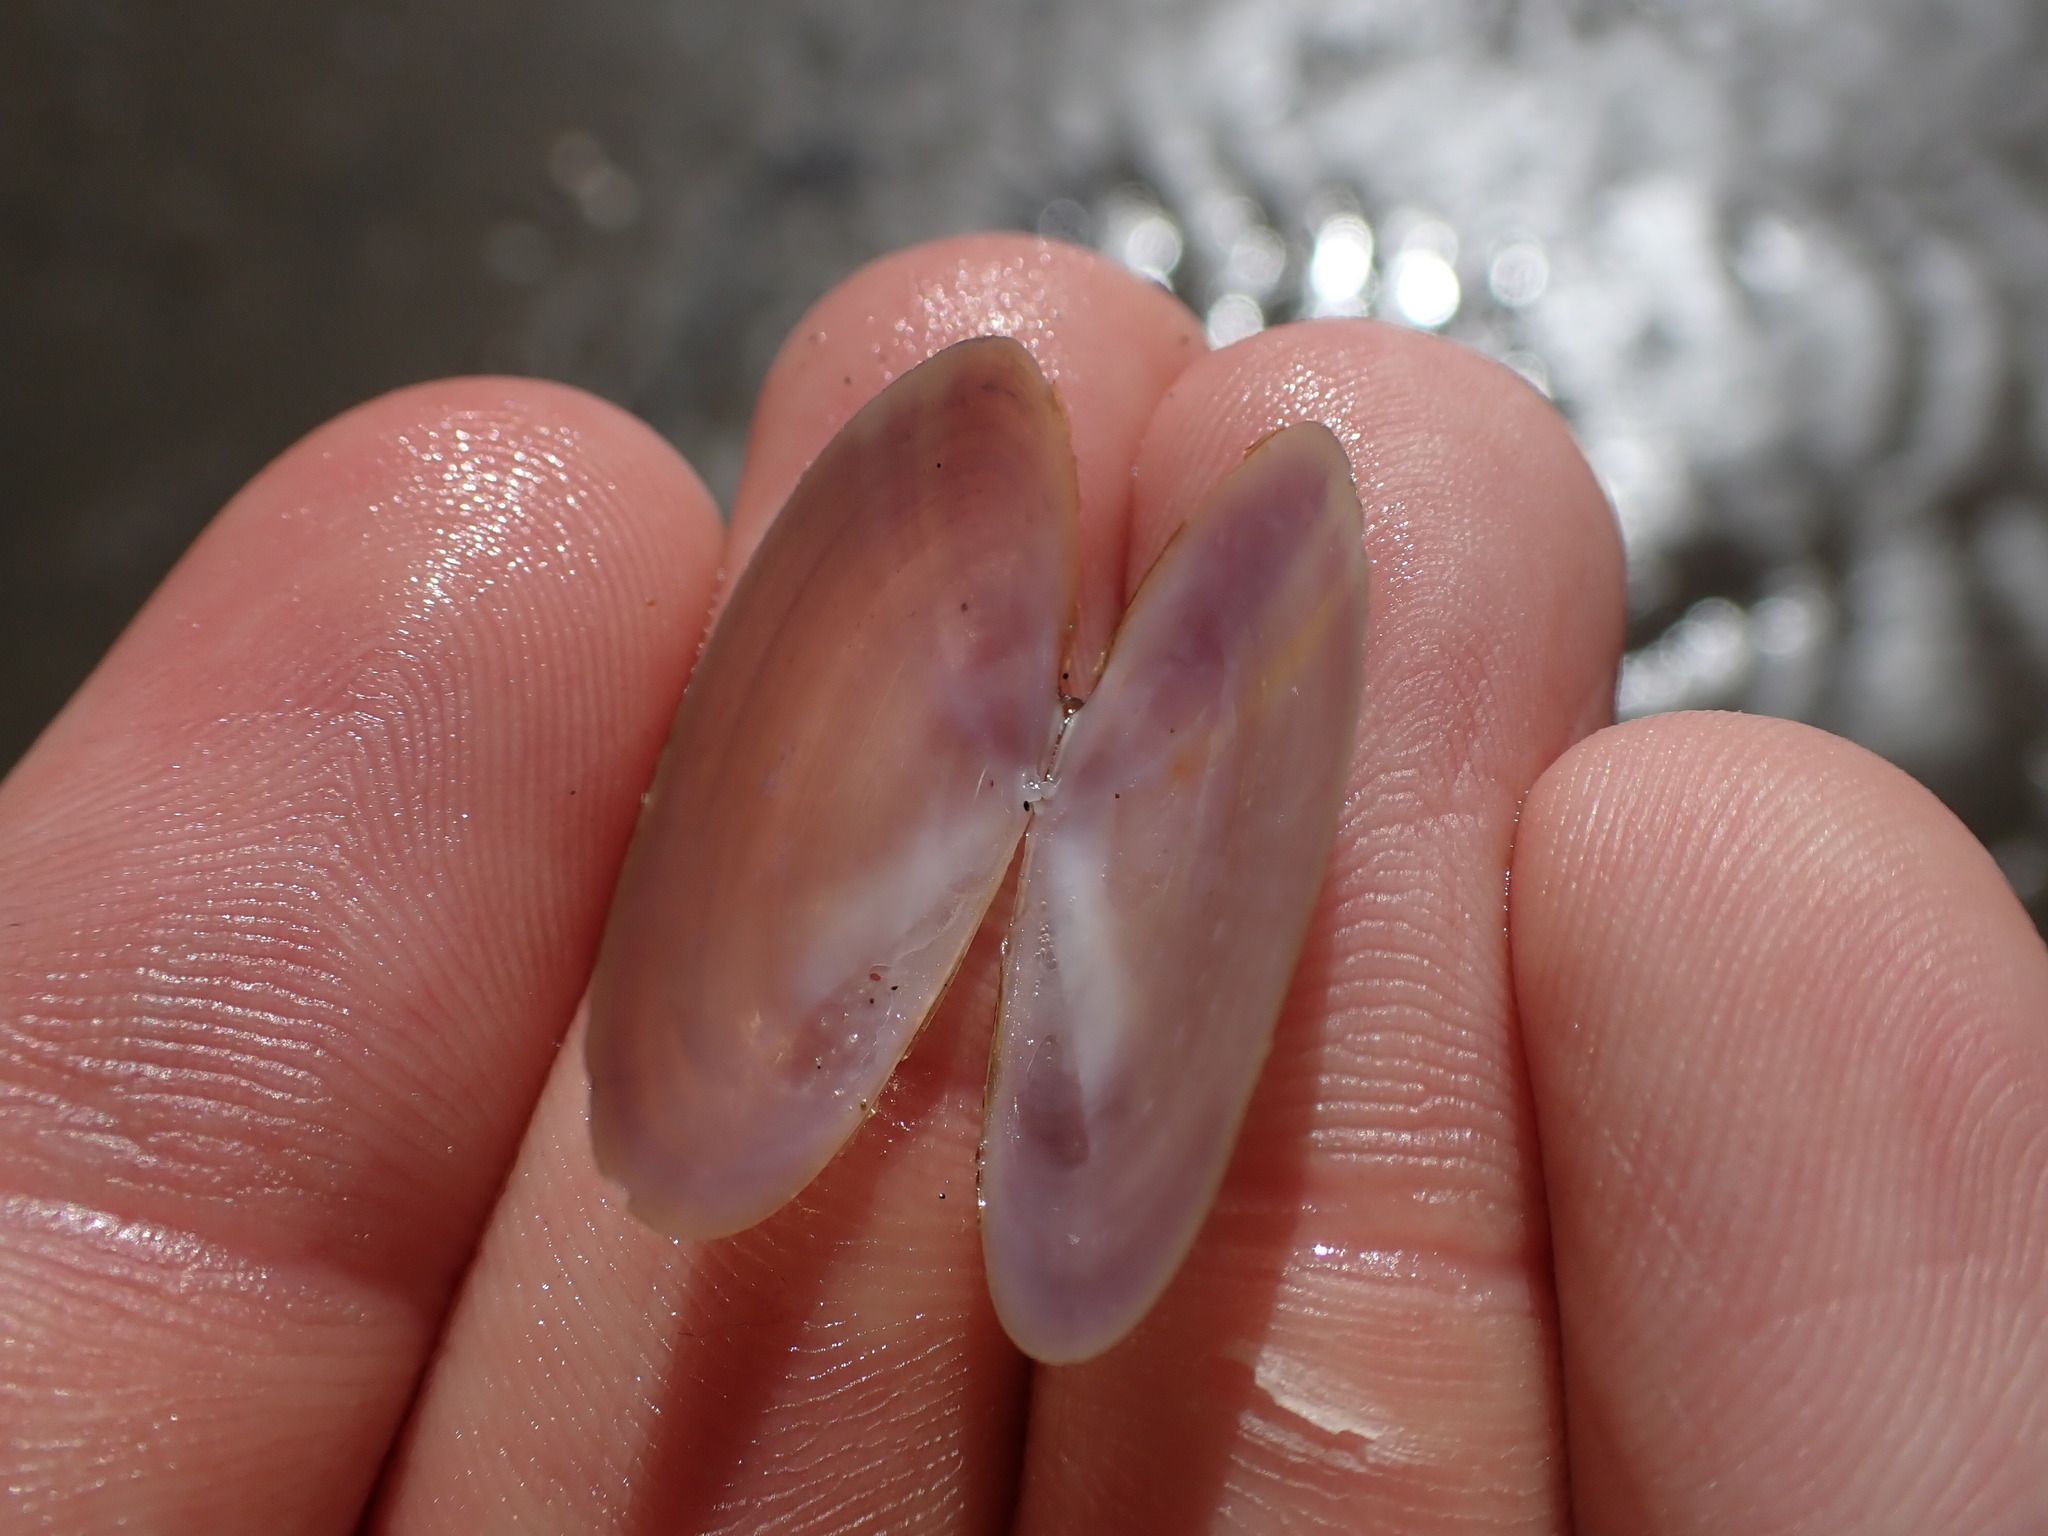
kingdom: Animalia
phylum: Mollusca
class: Bivalvia
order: Cardiida
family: Psammobiidae
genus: Hiatula
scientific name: Hiatula nitida
